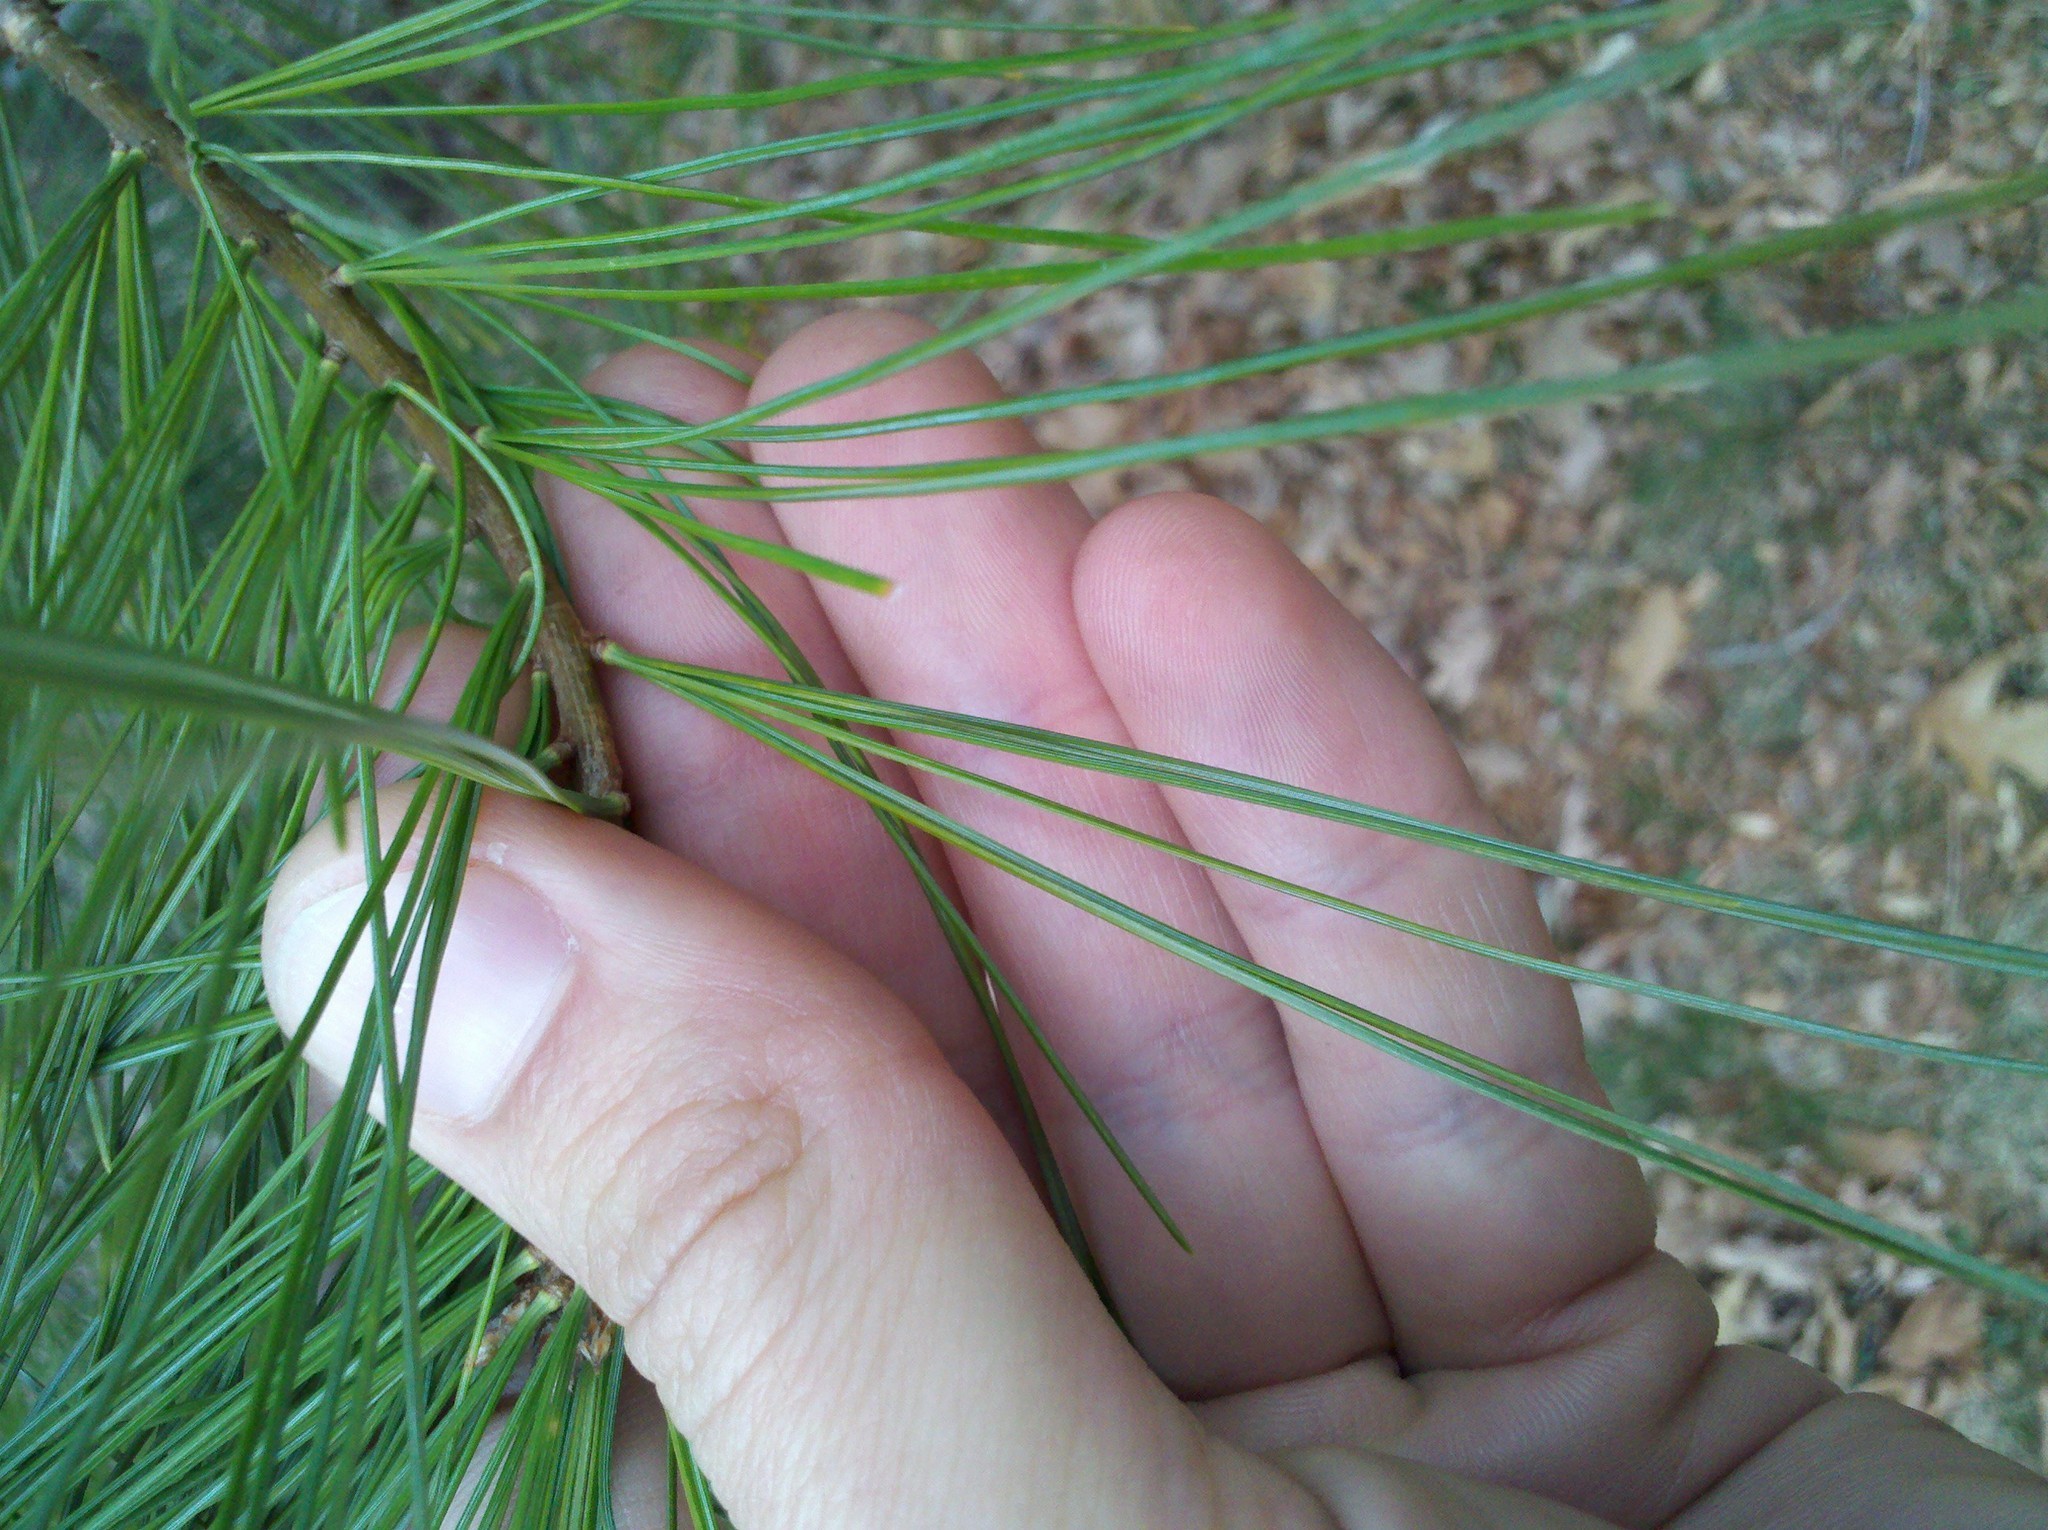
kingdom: Plantae
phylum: Tracheophyta
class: Pinopsida
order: Pinales
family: Pinaceae
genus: Pinus
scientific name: Pinus strobus
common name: Weymouth pine
